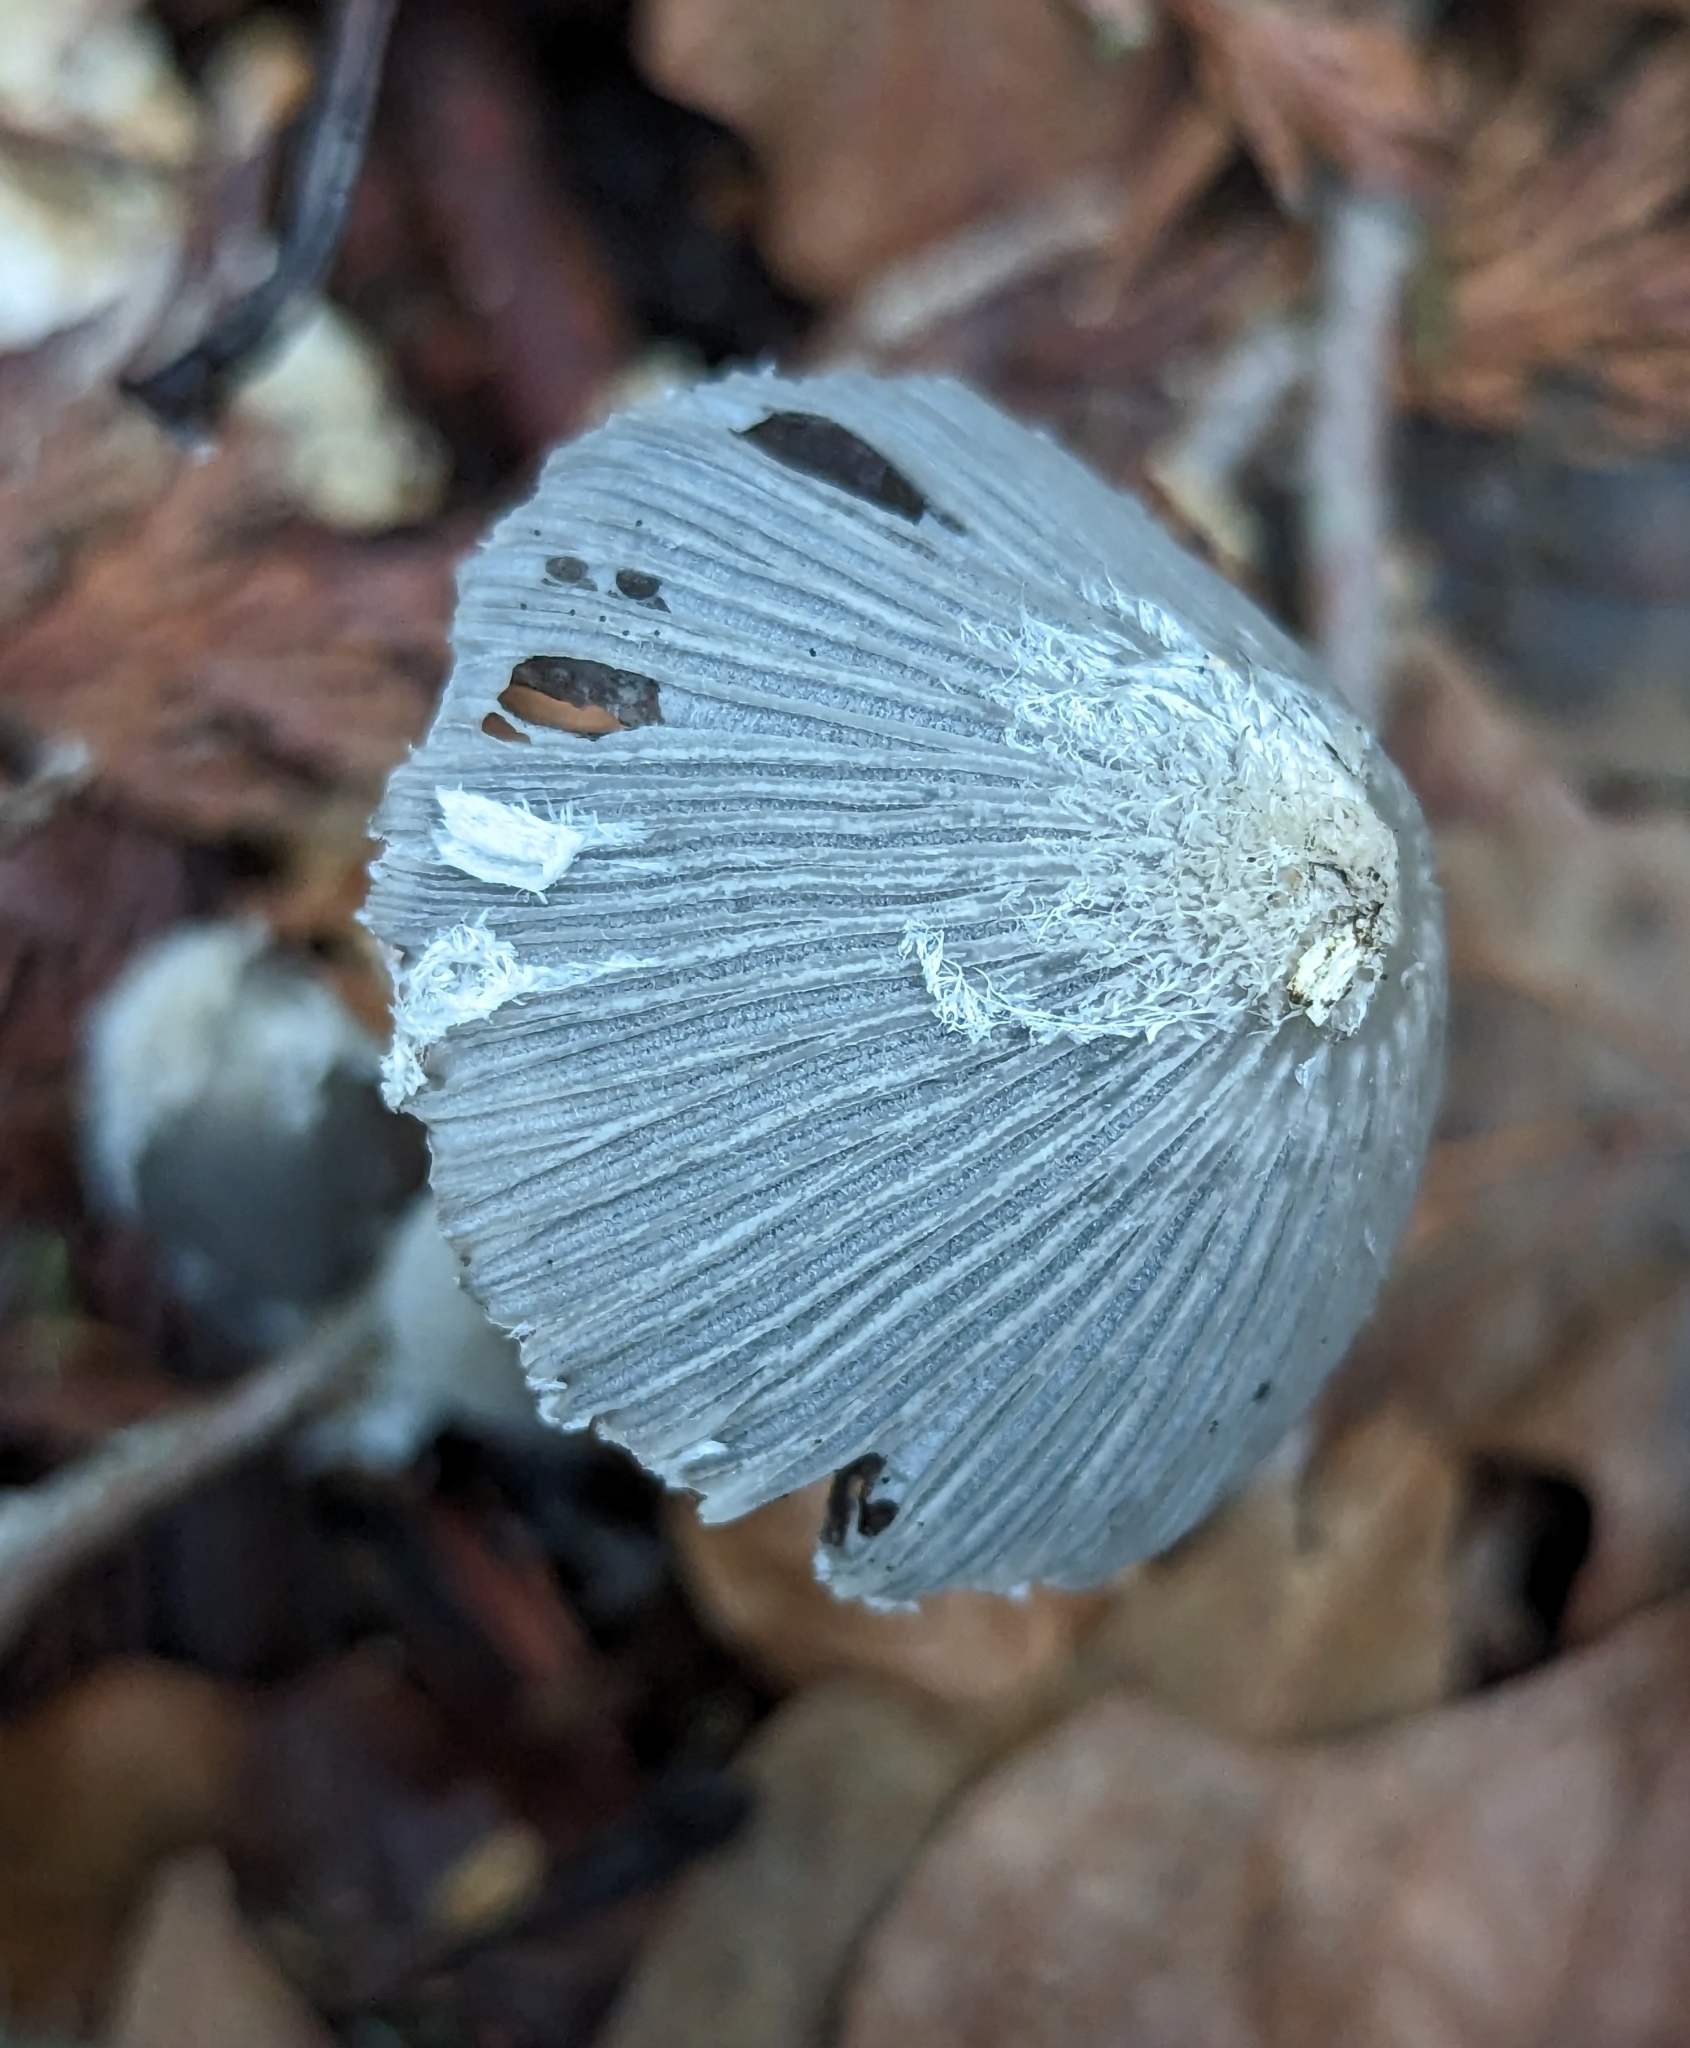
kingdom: Fungi
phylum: Basidiomycota
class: Agaricomycetes
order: Agaricales
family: Psathyrellaceae
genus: Coprinopsis
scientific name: Coprinopsis lagopus
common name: Hare'sfoot inkcap
